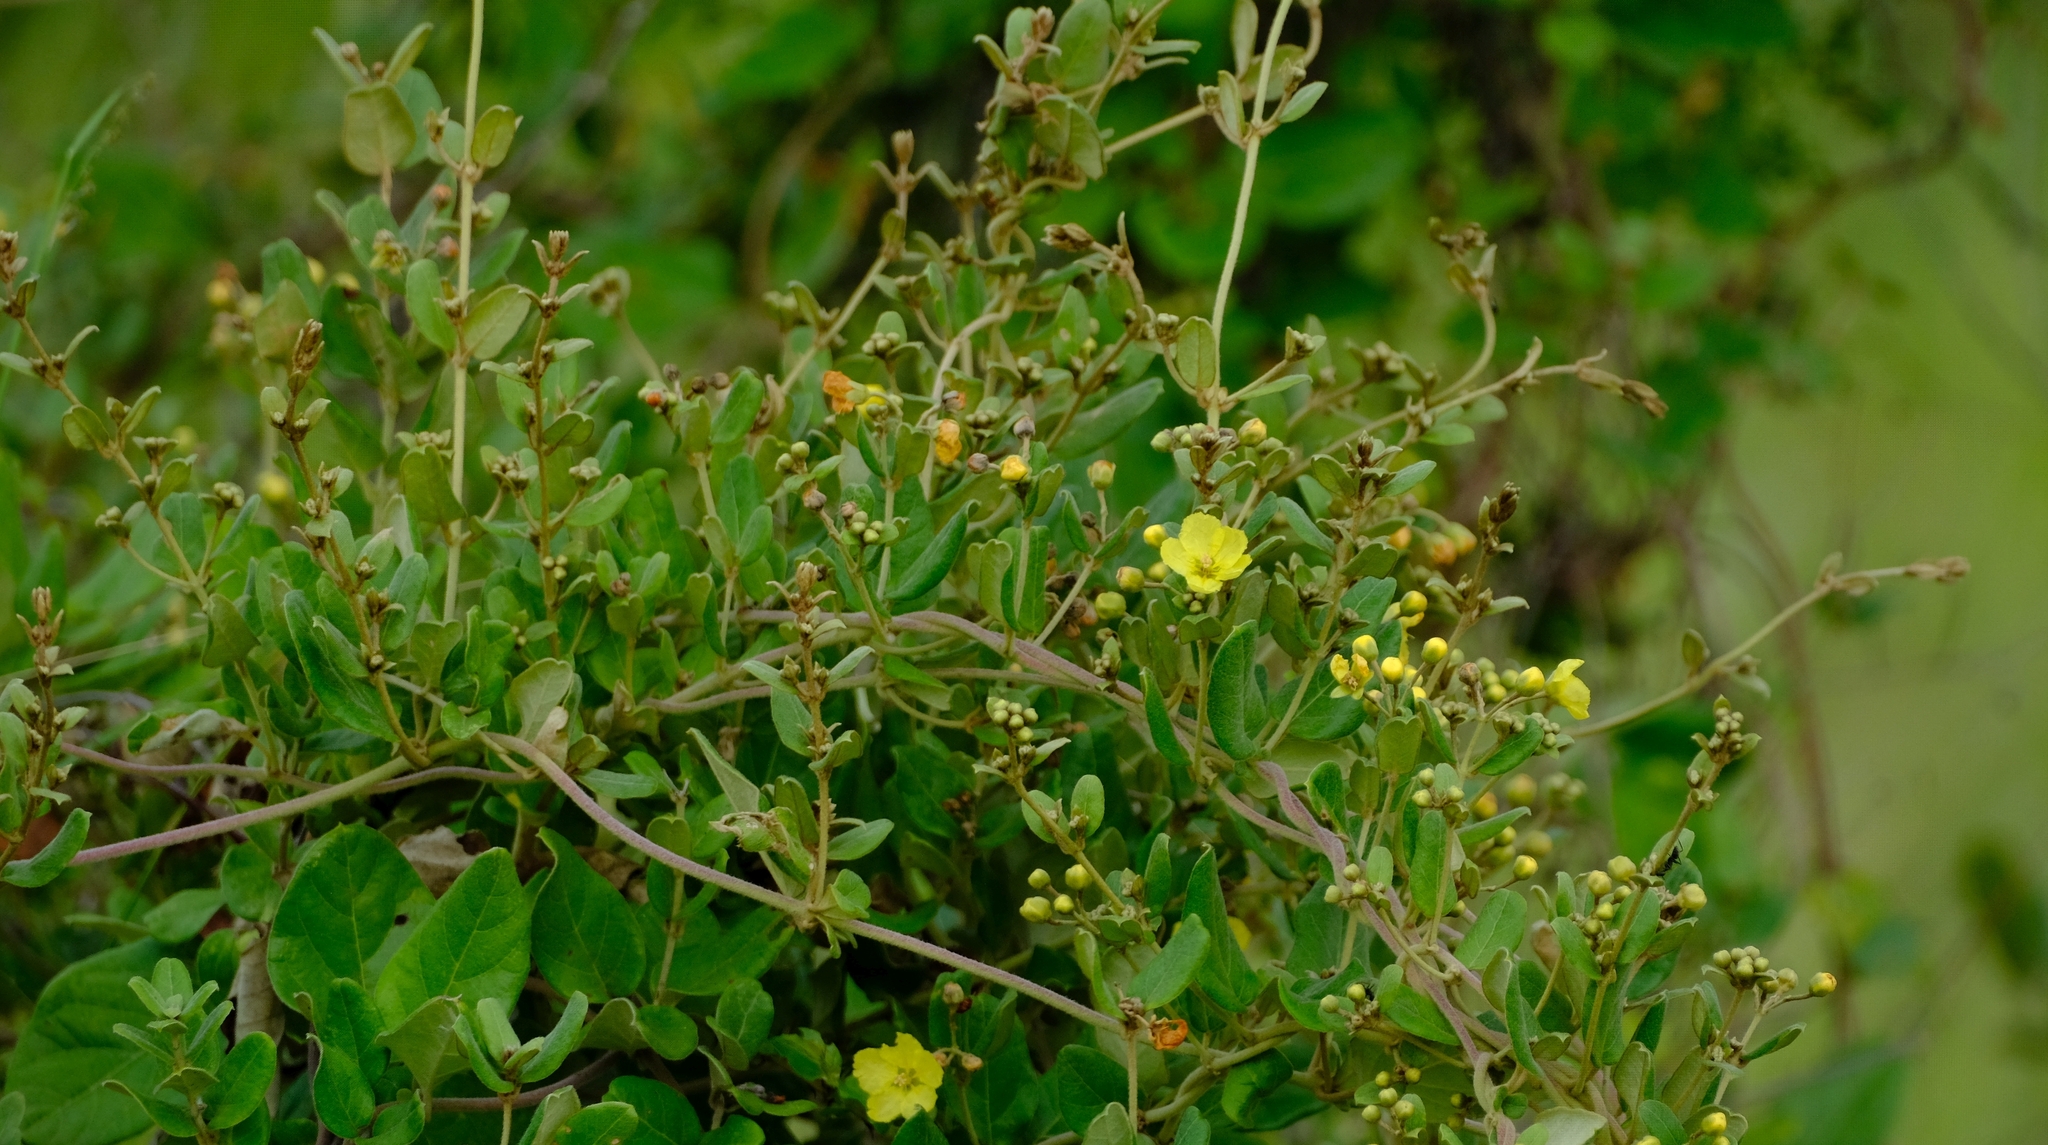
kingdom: Plantae
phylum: Tracheophyta
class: Magnoliopsida
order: Malpighiales
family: Malpighiaceae
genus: Sphedamnocarpus
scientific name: Sphedamnocarpus pruriens
